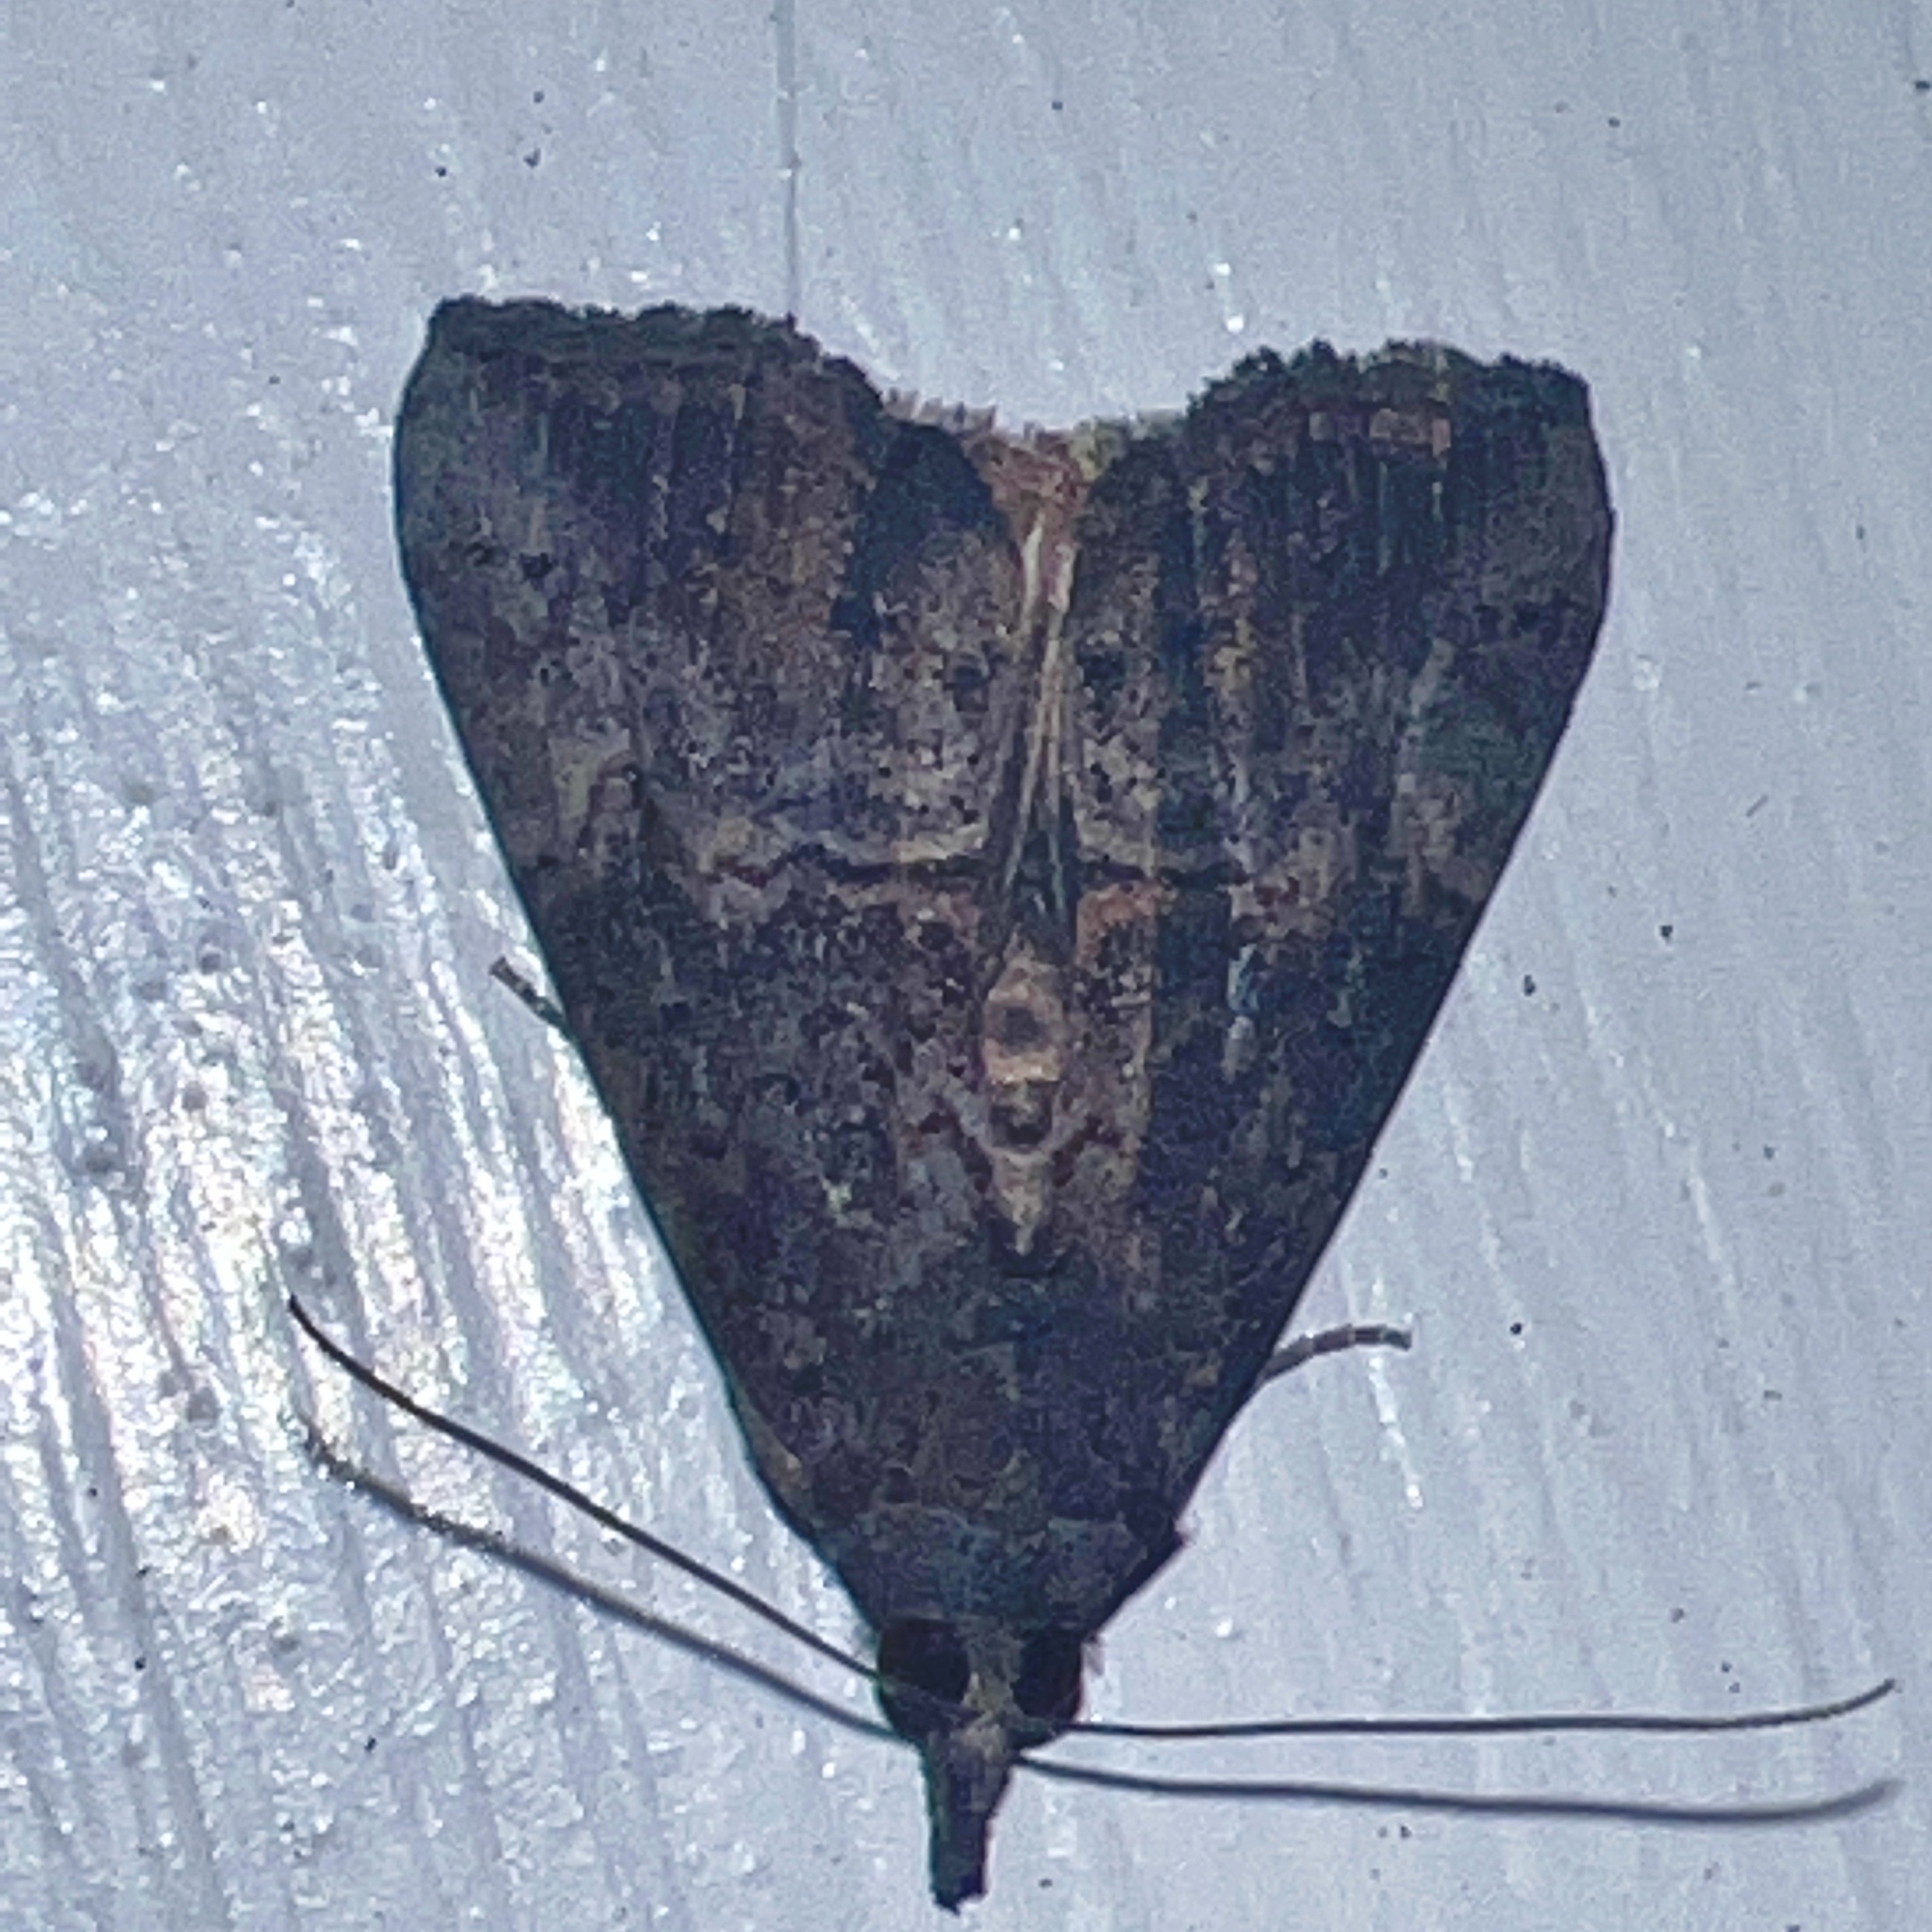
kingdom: Animalia
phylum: Arthropoda
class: Insecta
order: Lepidoptera
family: Erebidae
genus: Hypena
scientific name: Hypena scabra
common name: Green cloverworm
